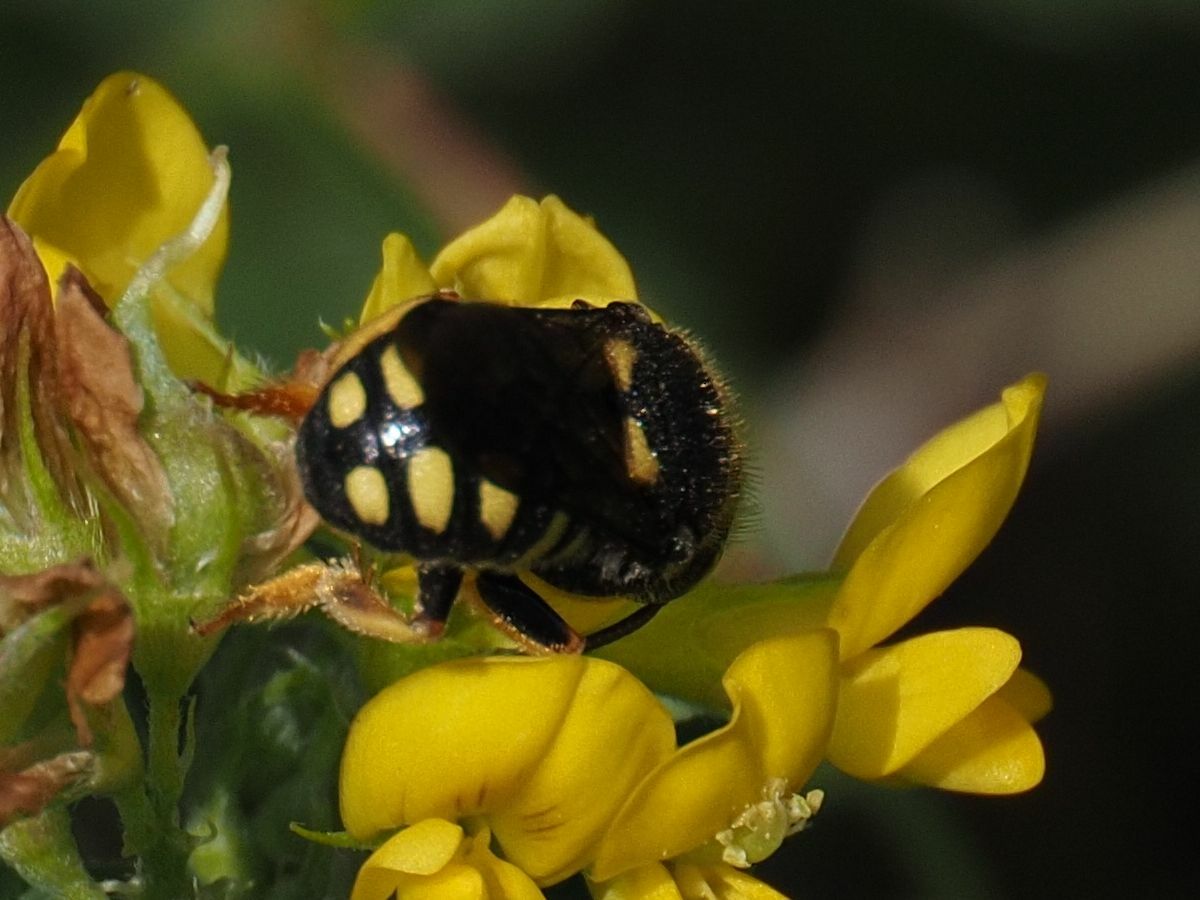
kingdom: Animalia
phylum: Arthropoda
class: Insecta
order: Hymenoptera
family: Megachilidae
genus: Anthidiellum
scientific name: Anthidiellum strigatum
